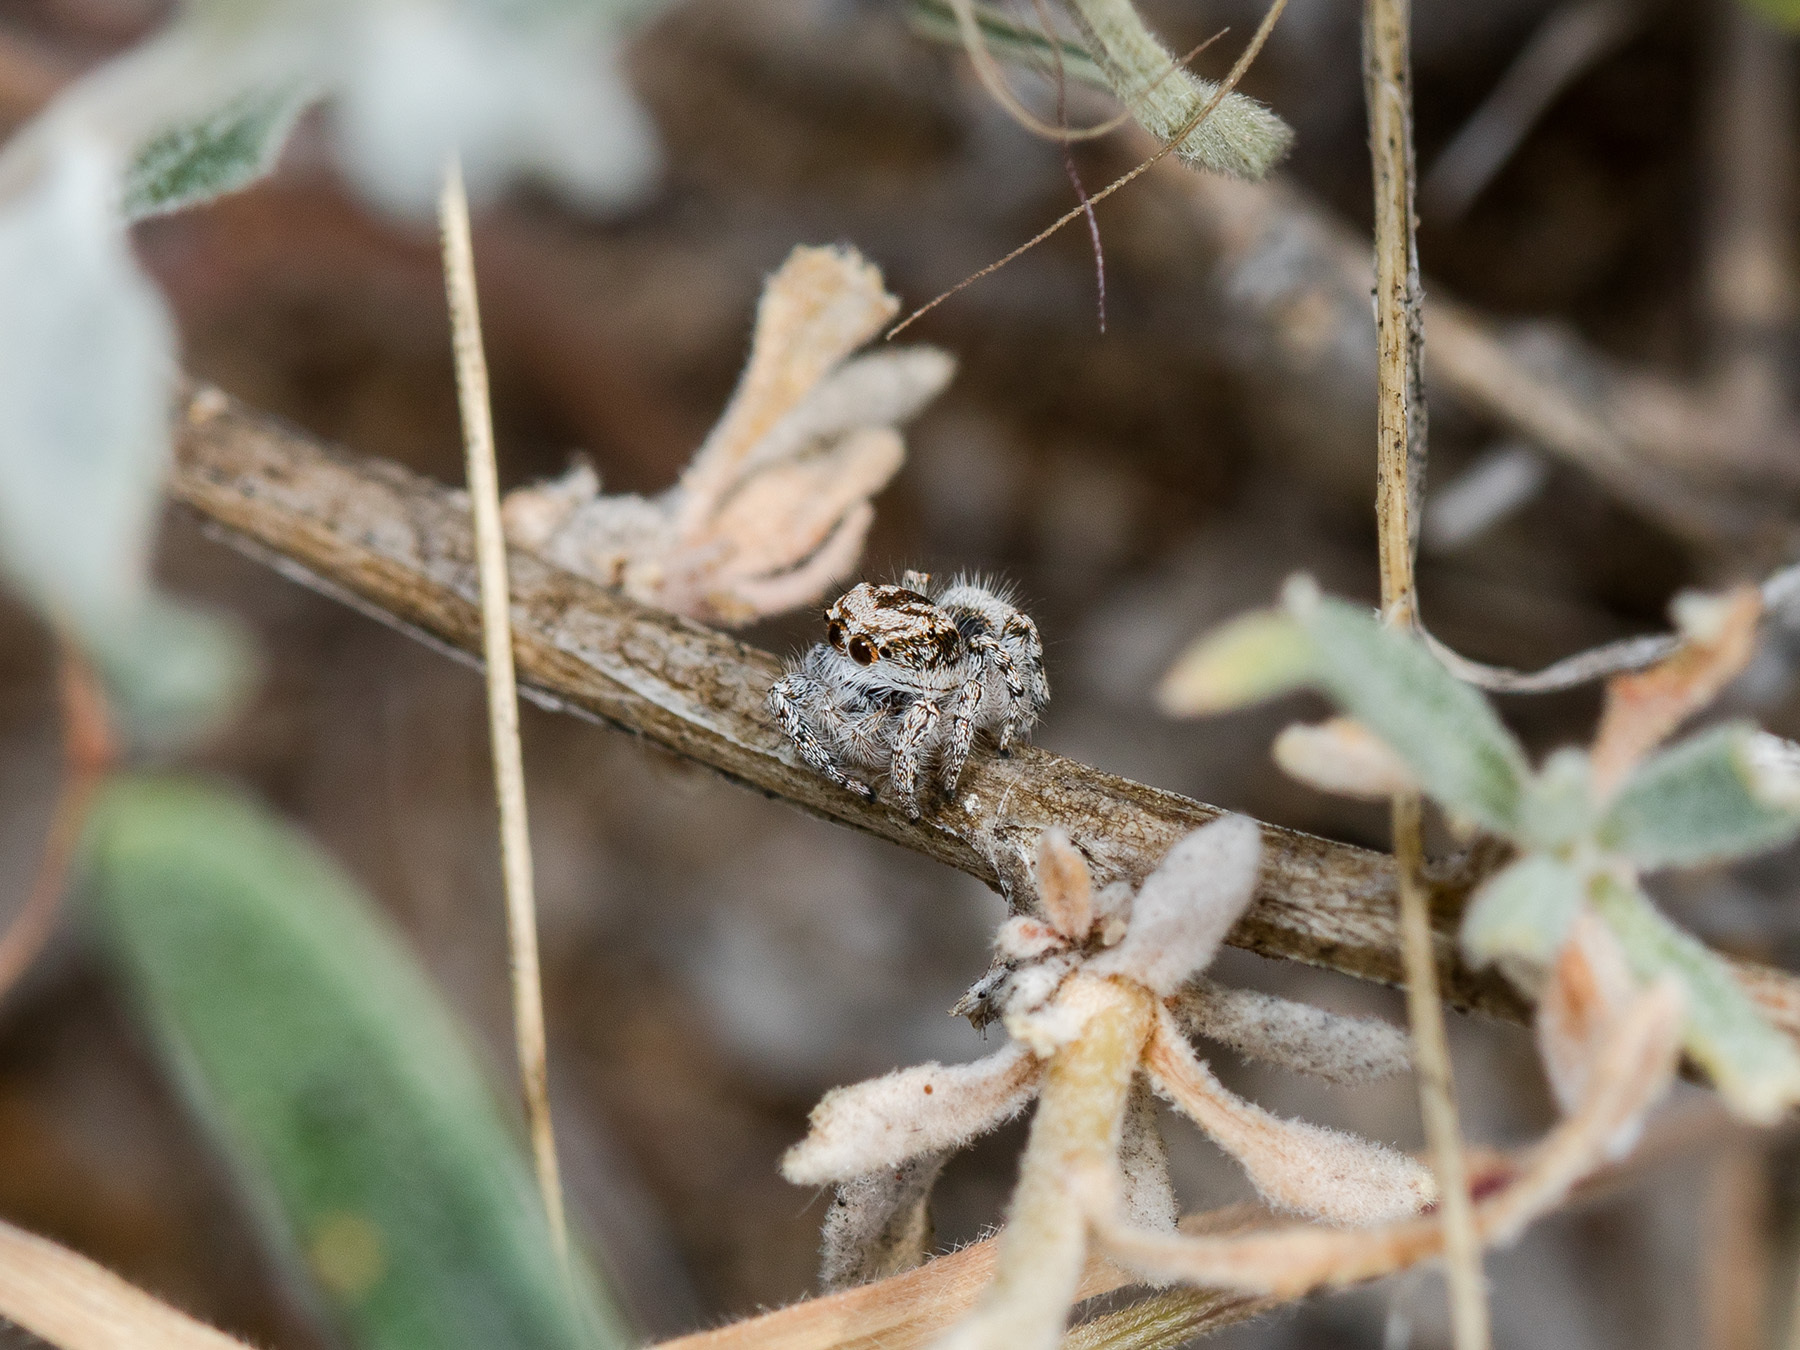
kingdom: Animalia
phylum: Arthropoda
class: Arachnida
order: Araneae
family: Salticidae
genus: Pseudomogrus
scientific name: Pseudomogrus dalaensis
